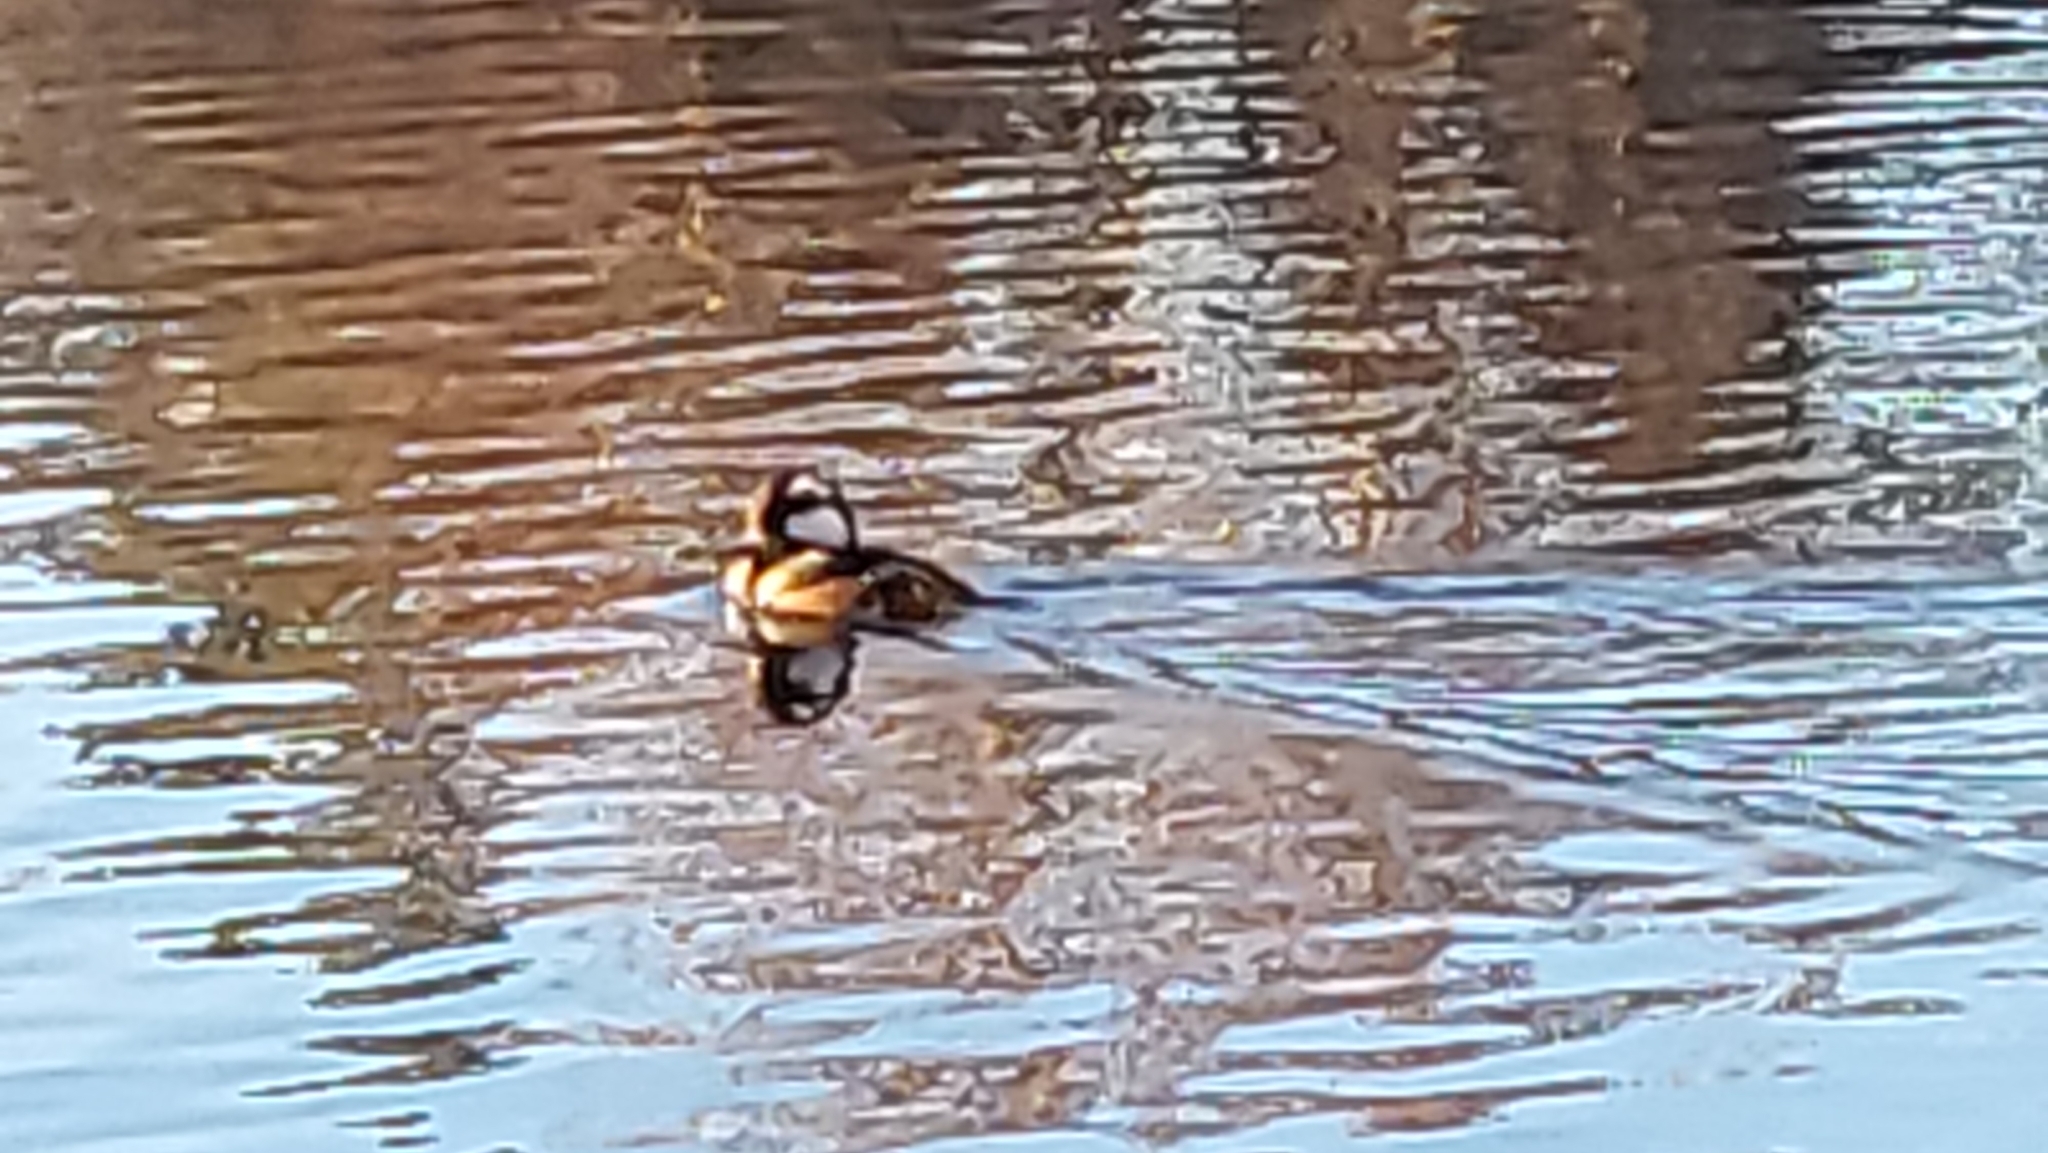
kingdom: Animalia
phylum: Chordata
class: Aves
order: Anseriformes
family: Anatidae
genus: Lophodytes
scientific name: Lophodytes cucullatus
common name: Hooded merganser
